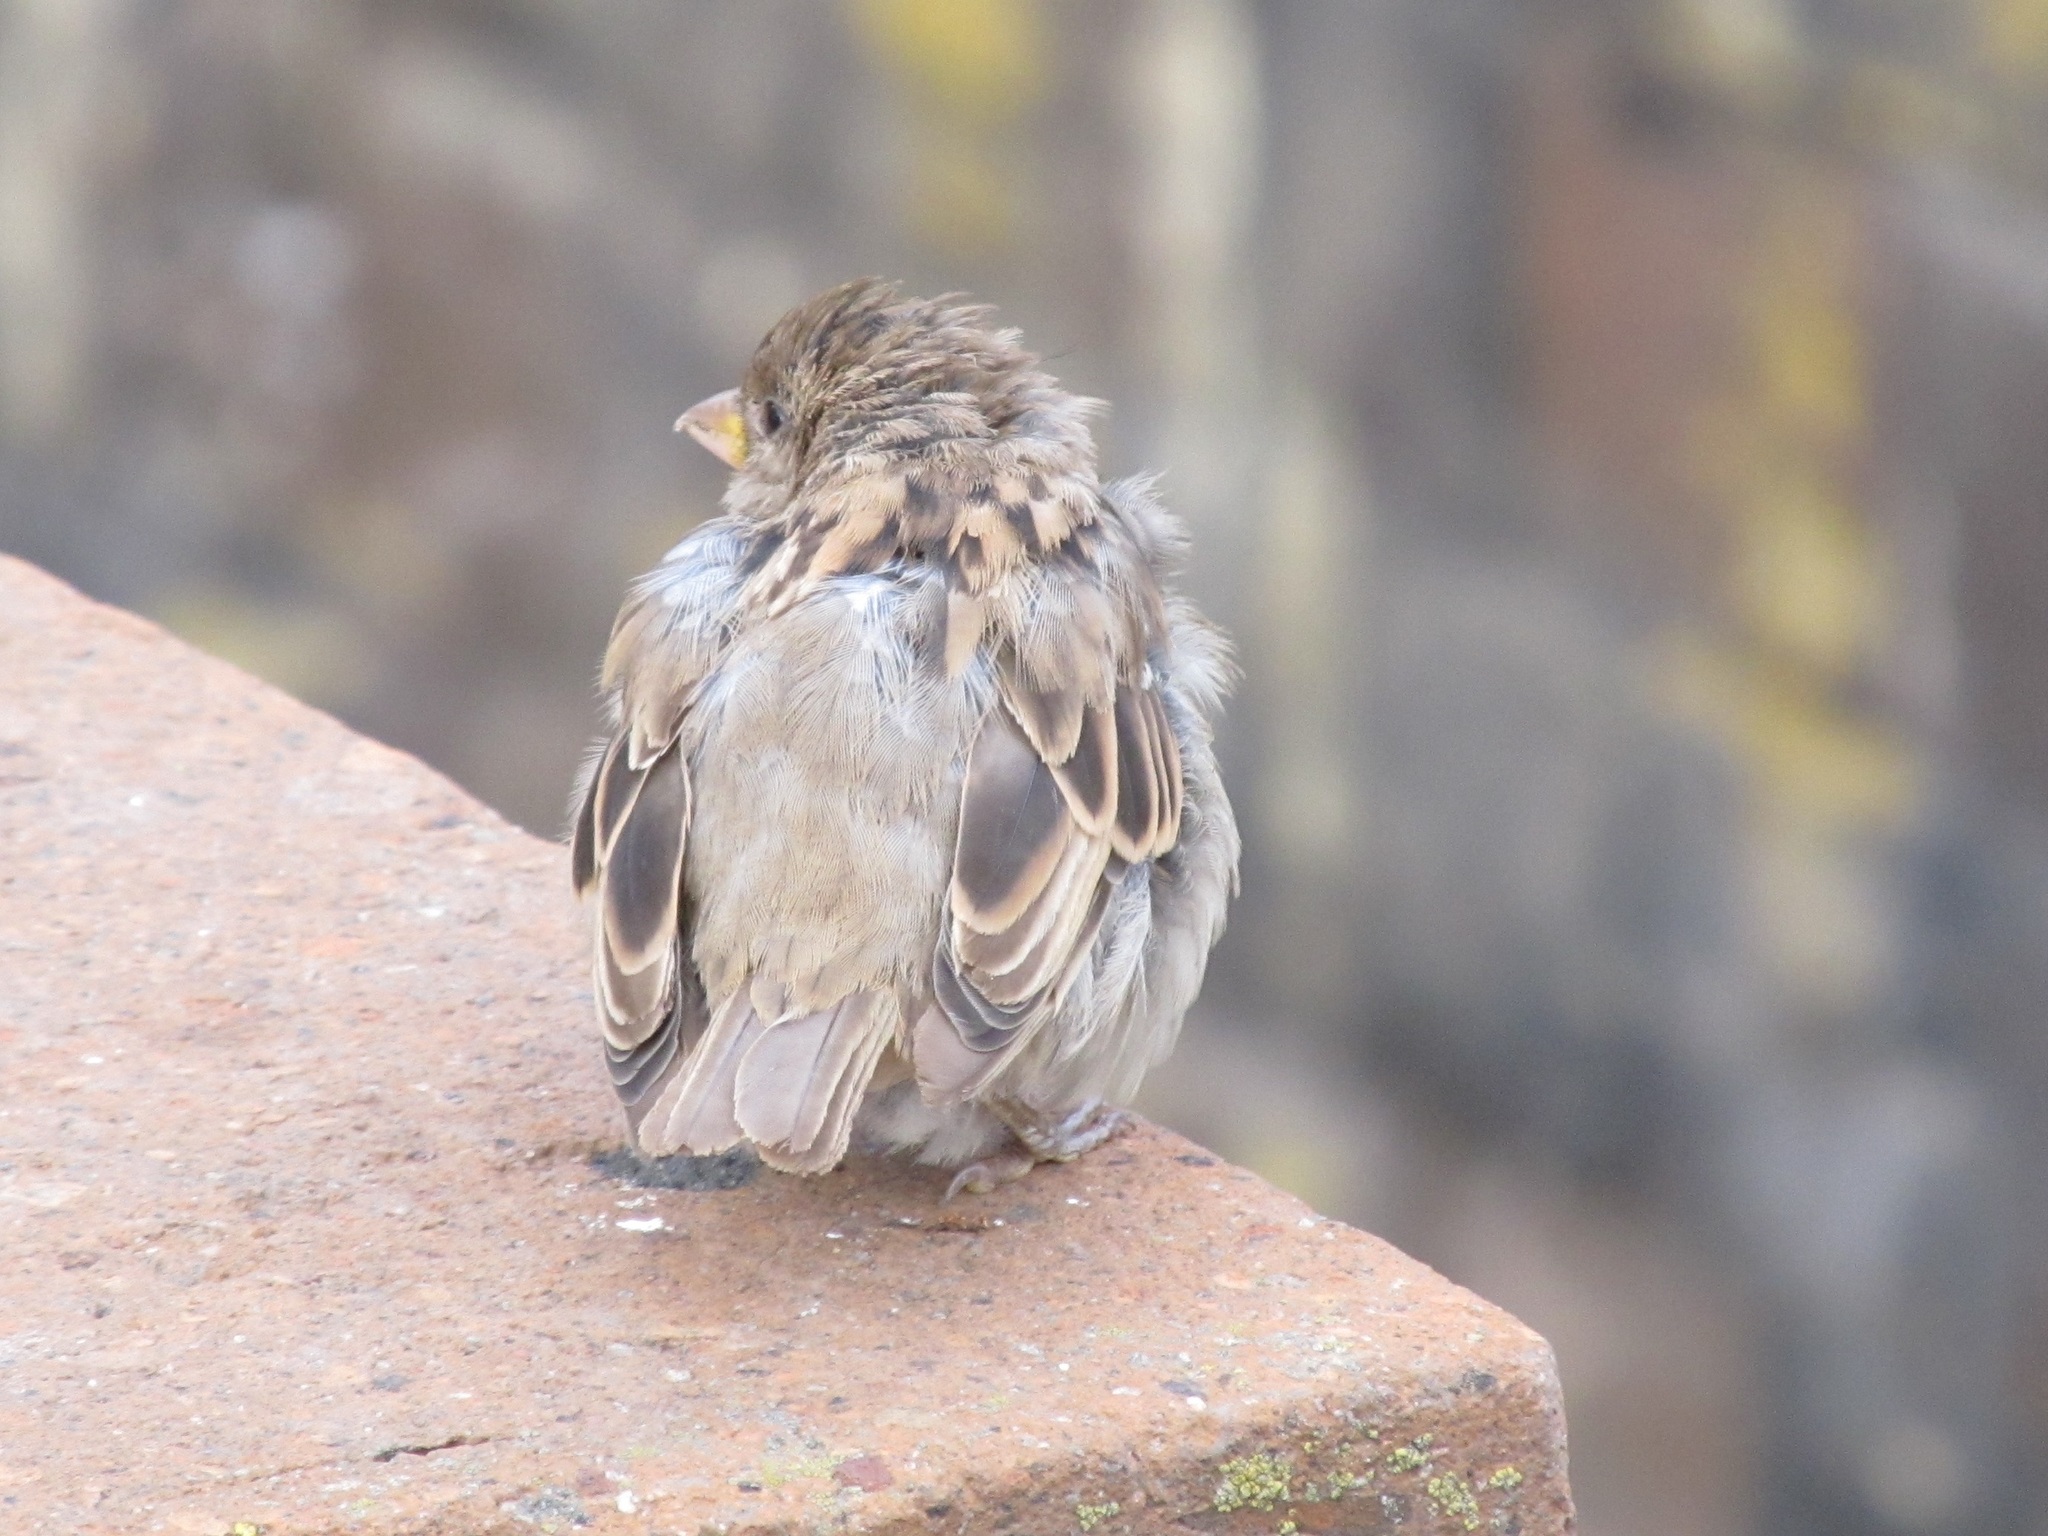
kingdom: Animalia
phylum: Chordata
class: Aves
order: Passeriformes
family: Passeridae
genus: Passer
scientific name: Passer domesticus
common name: House sparrow
